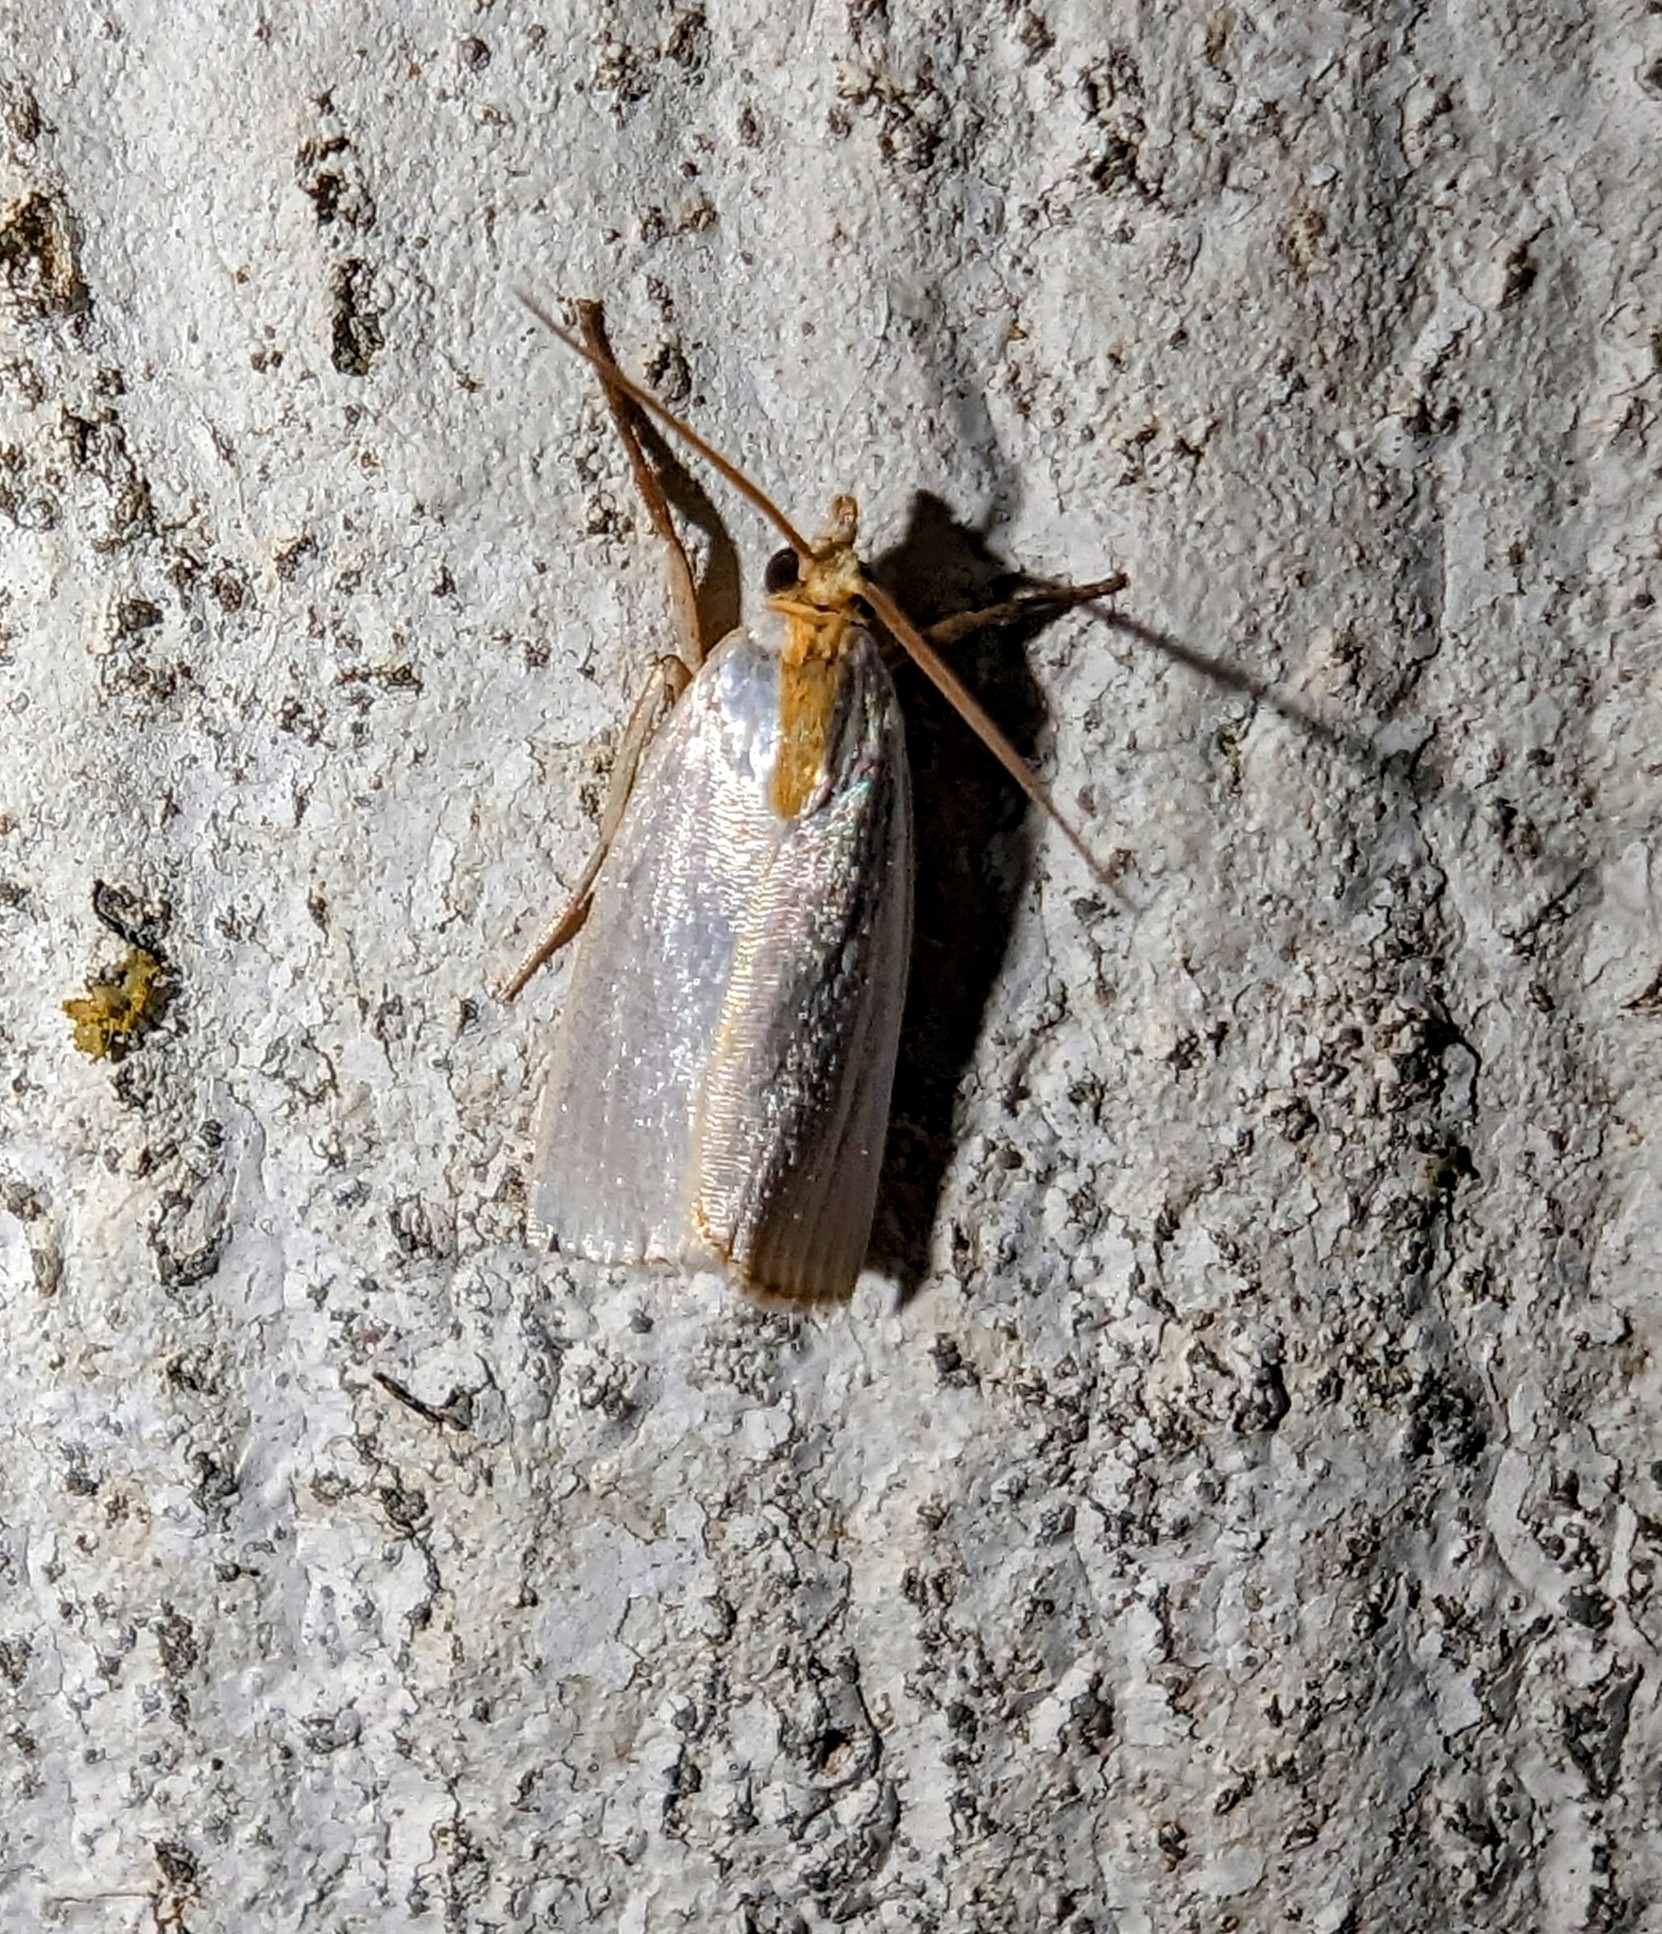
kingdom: Animalia
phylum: Arthropoda
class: Insecta
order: Lepidoptera
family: Crambidae
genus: Argyria
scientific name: Argyria
